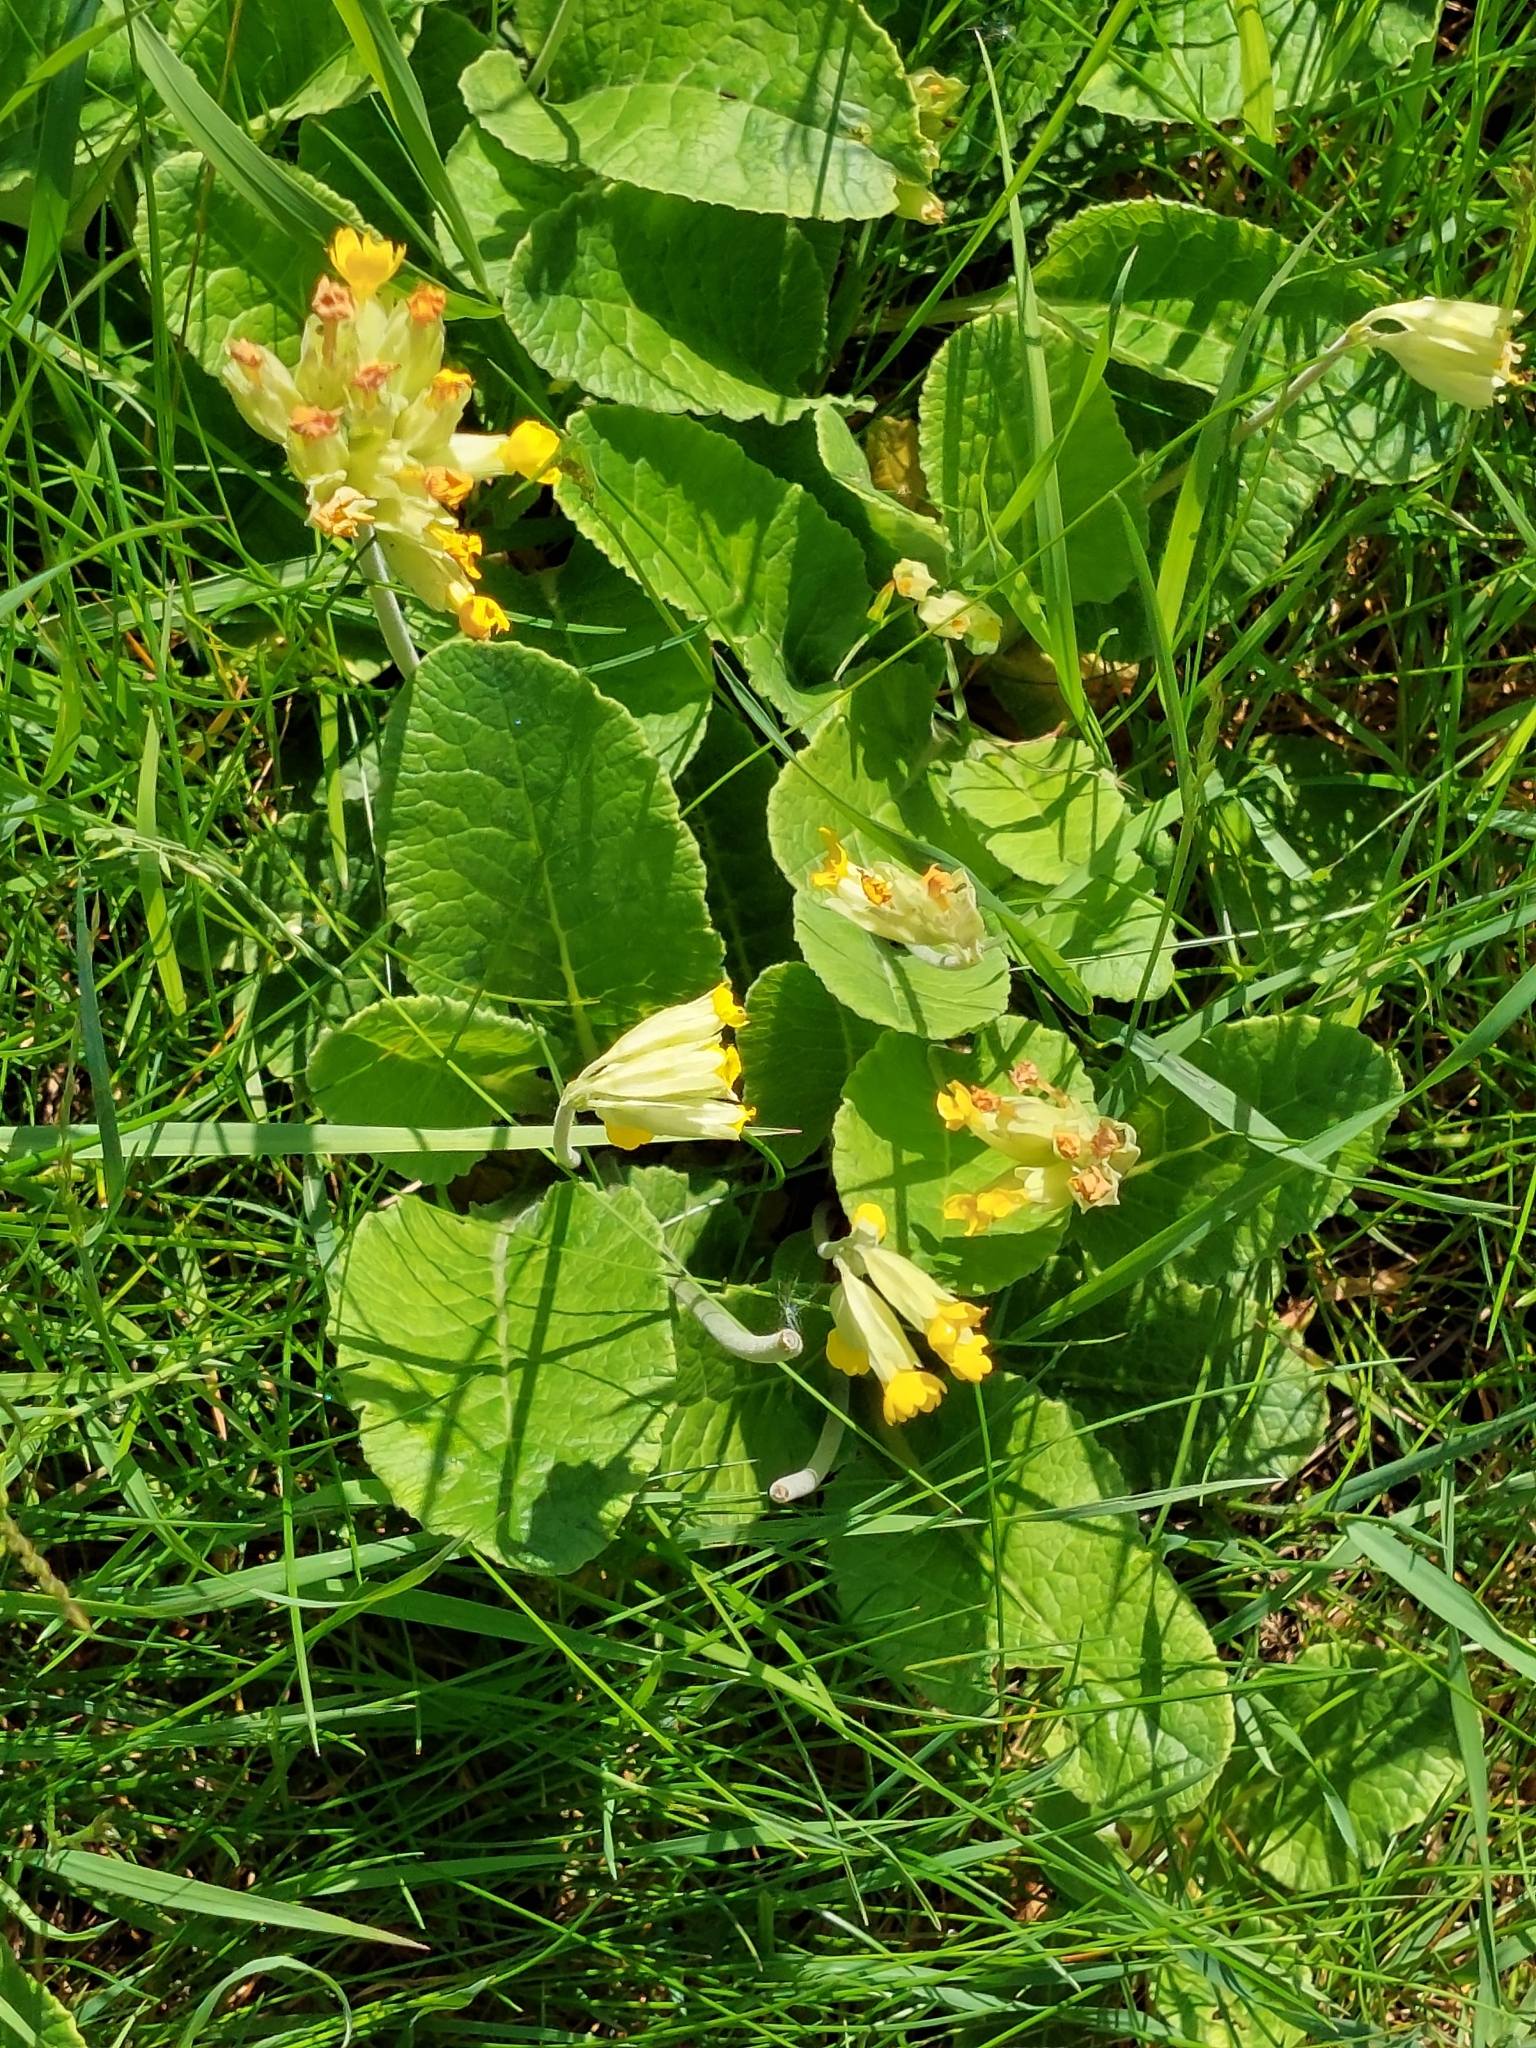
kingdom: Plantae
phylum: Tracheophyta
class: Magnoliopsida
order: Ericales
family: Primulaceae
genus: Primula
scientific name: Primula veris
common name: Cowslip
